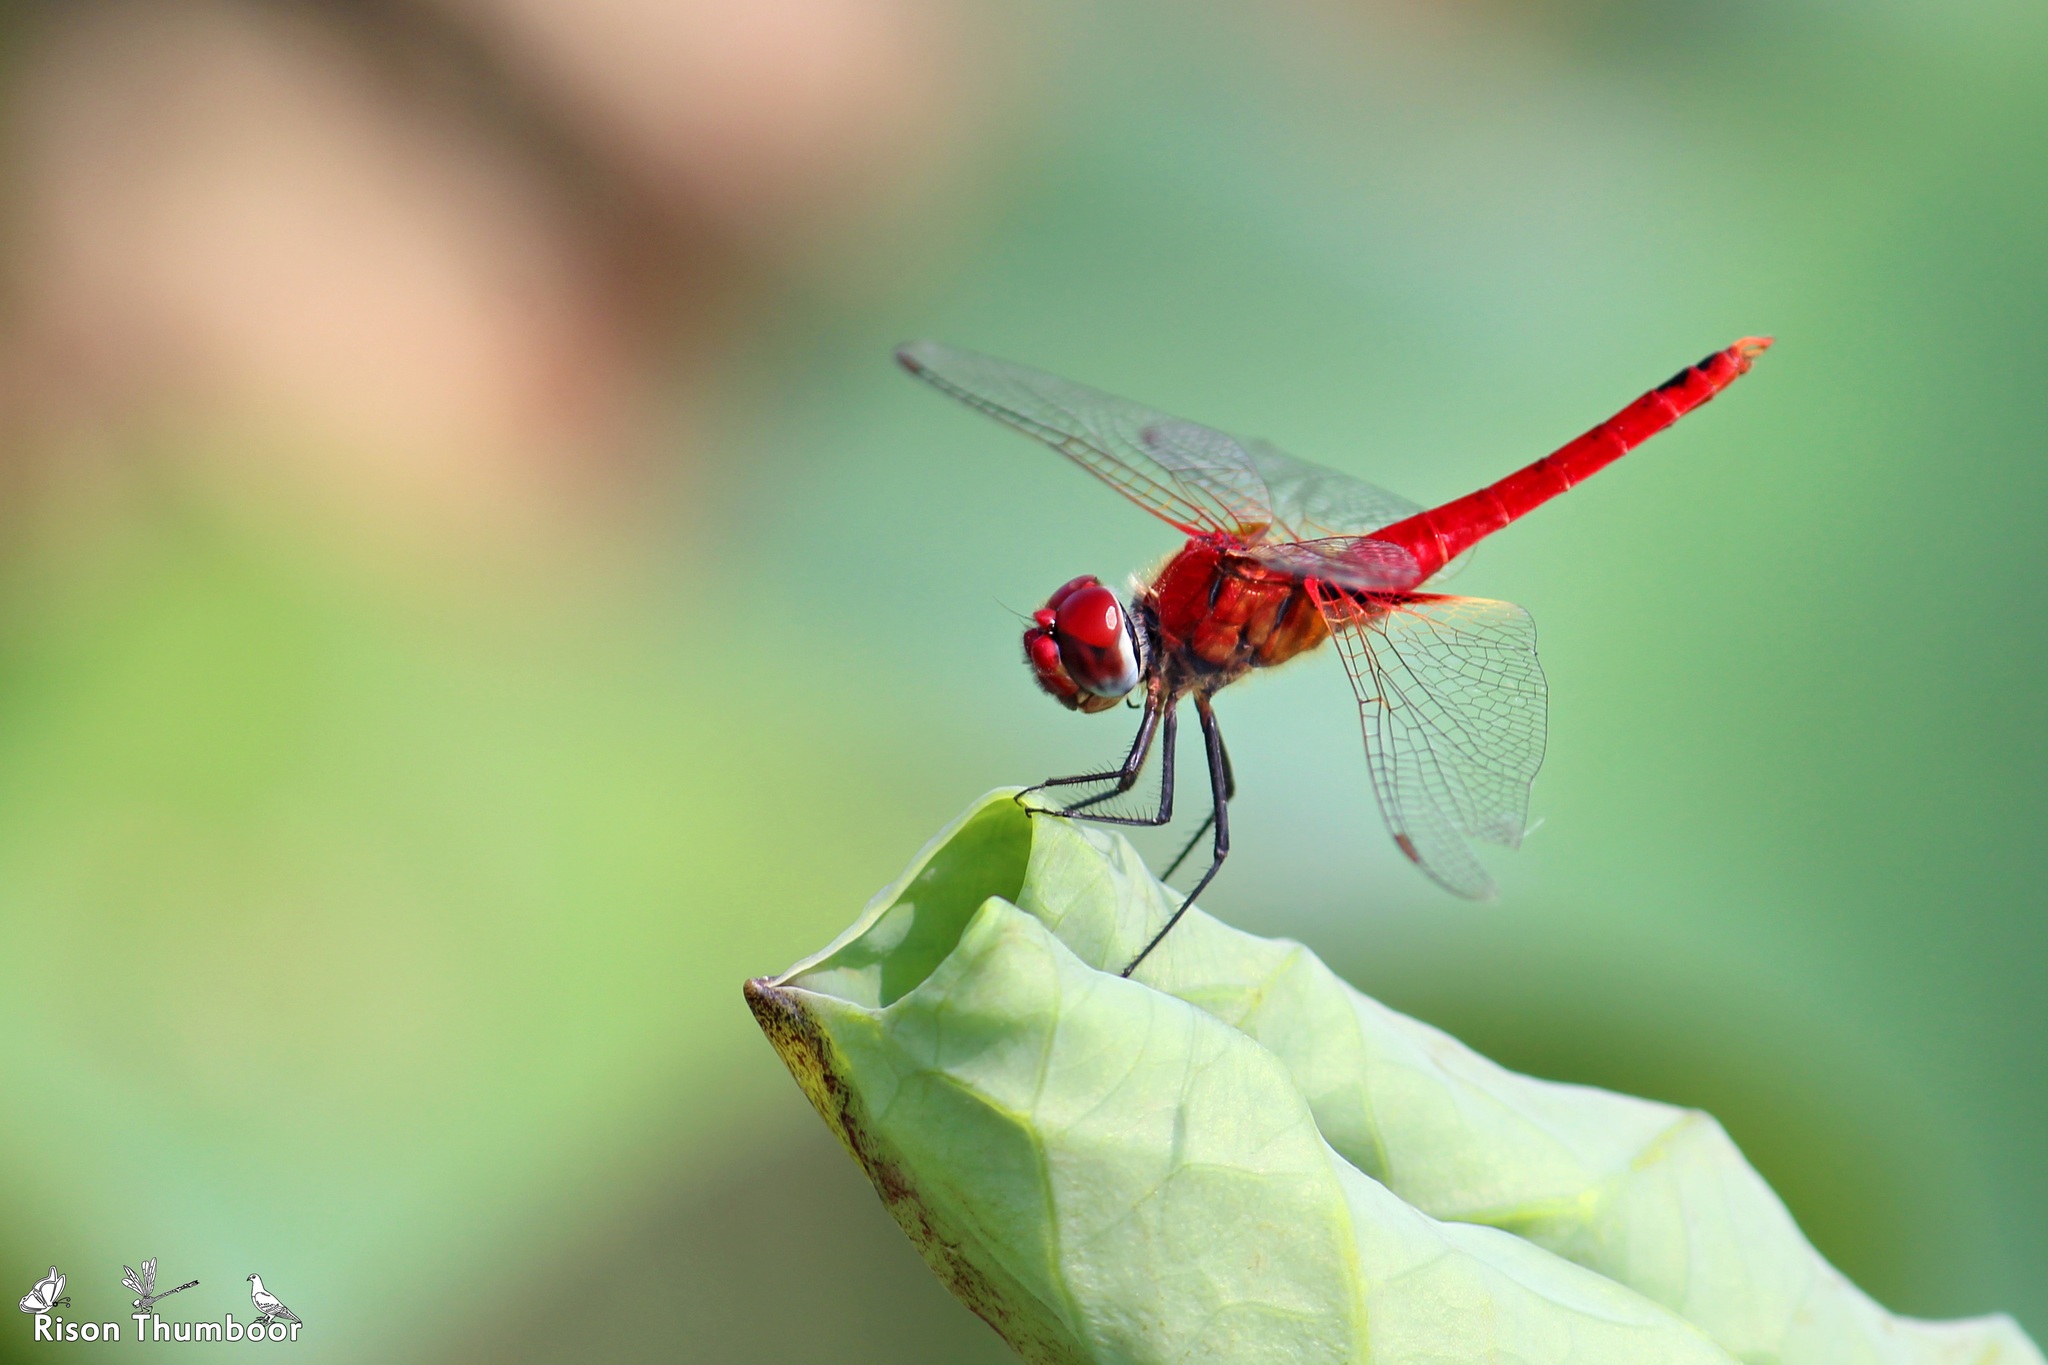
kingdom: Animalia
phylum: Arthropoda
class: Insecta
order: Odonata
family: Libellulidae
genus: Urothemis
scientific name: Urothemis signata
